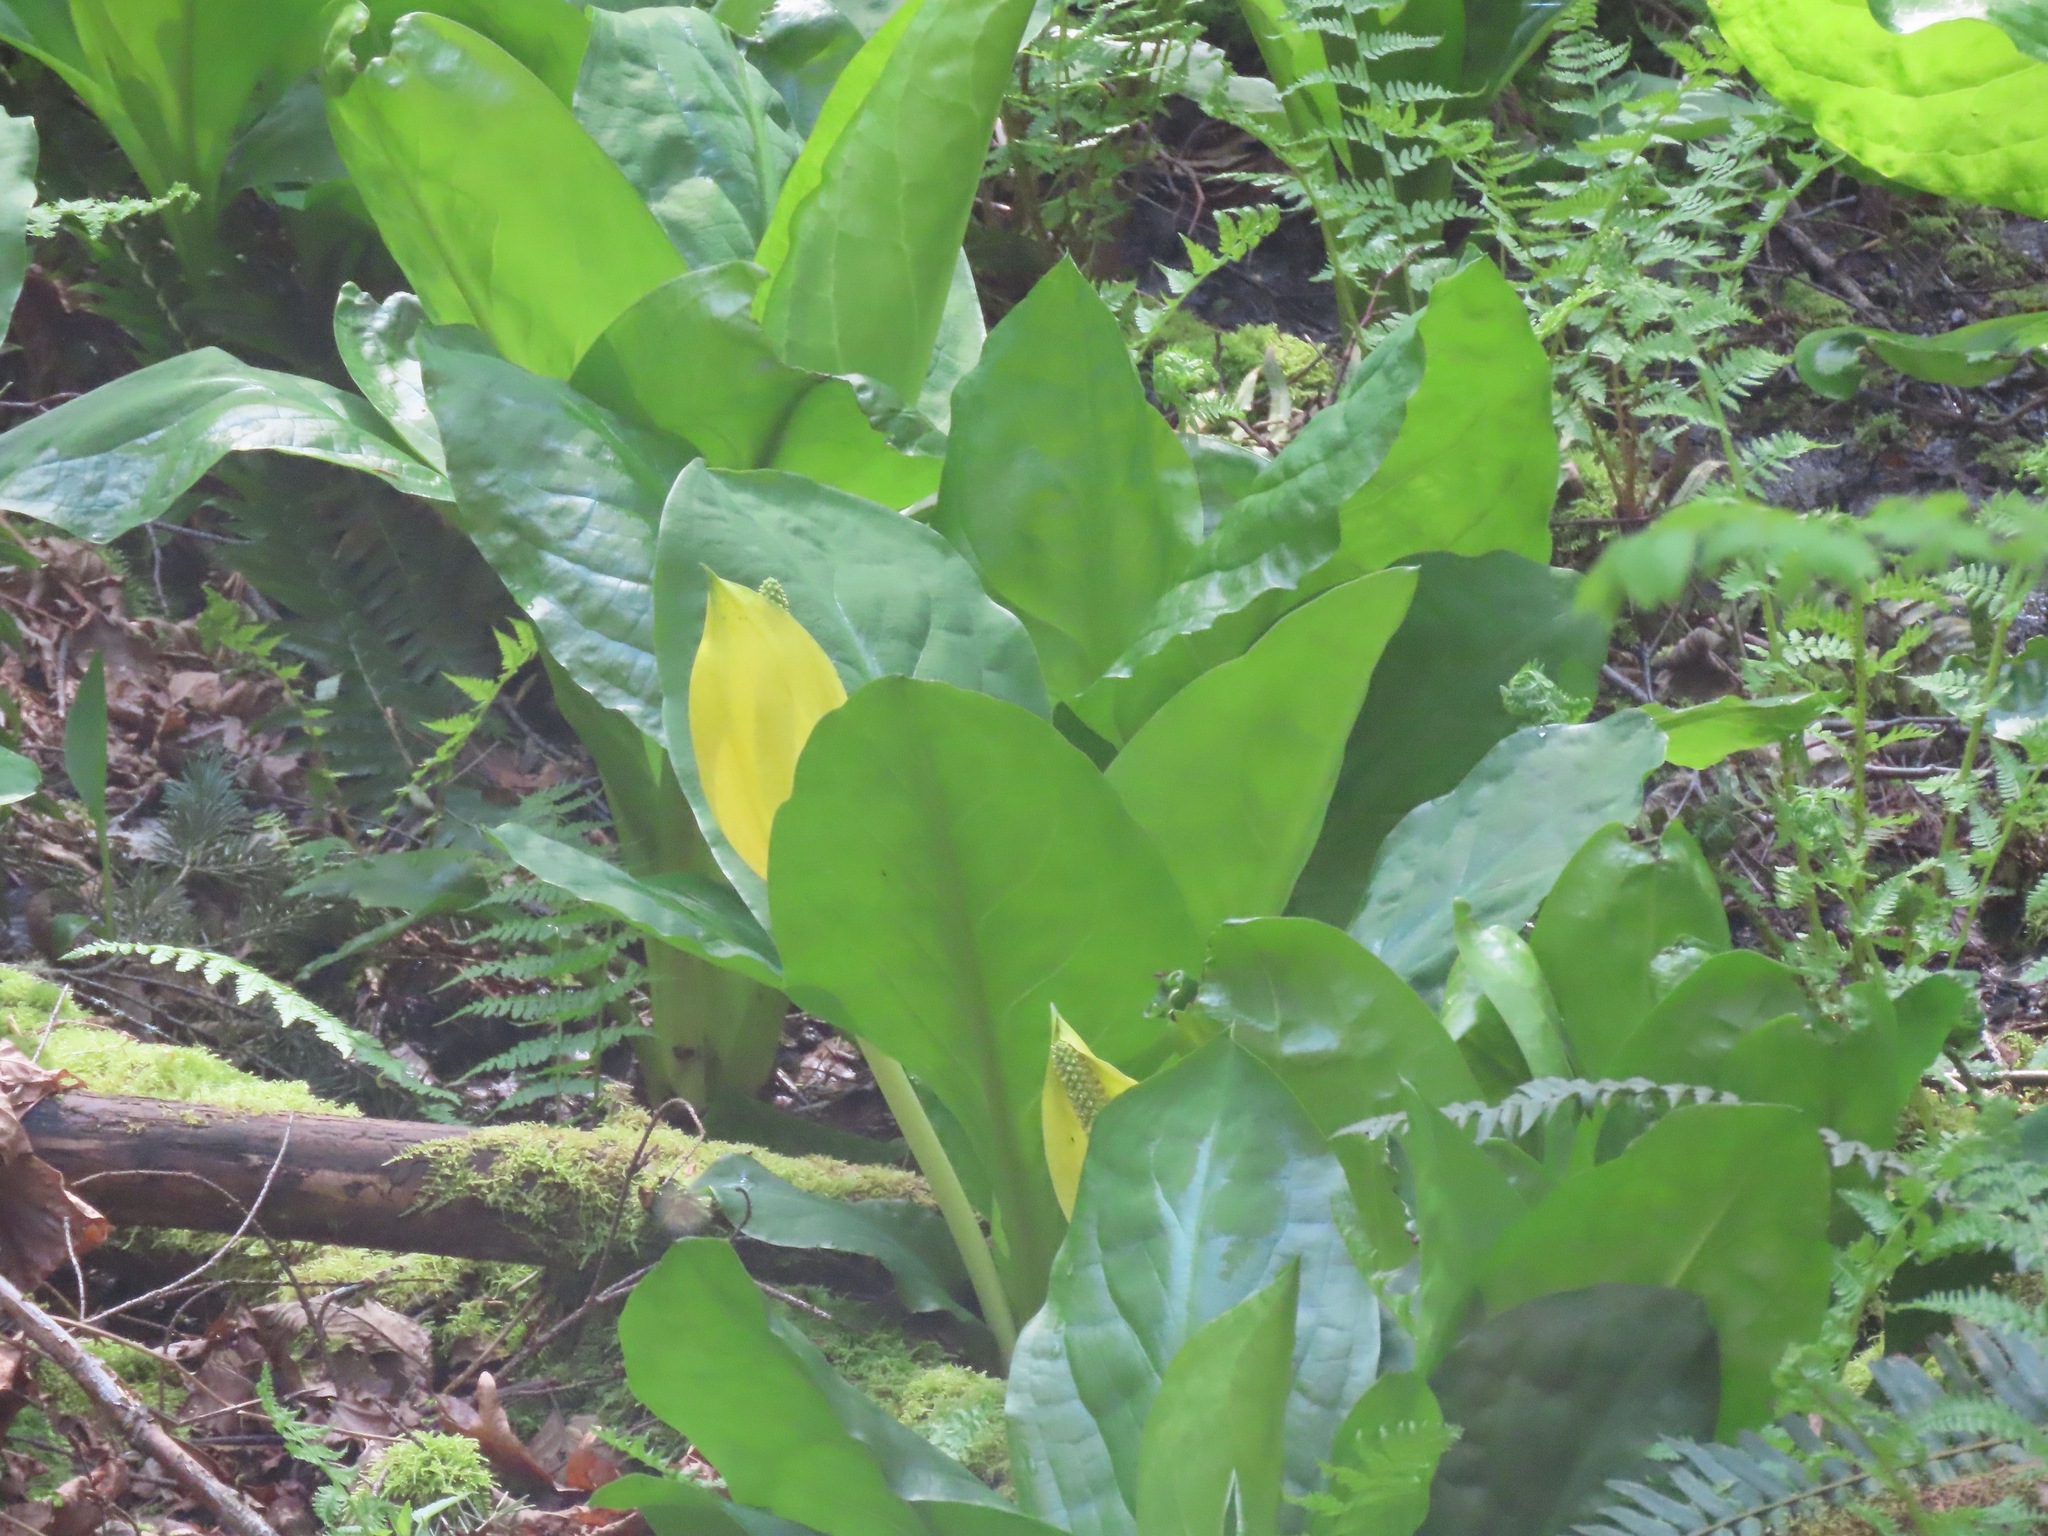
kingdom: Plantae
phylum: Tracheophyta
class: Liliopsida
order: Alismatales
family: Araceae
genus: Lysichiton
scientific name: Lysichiton americanus
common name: American skunk cabbage
